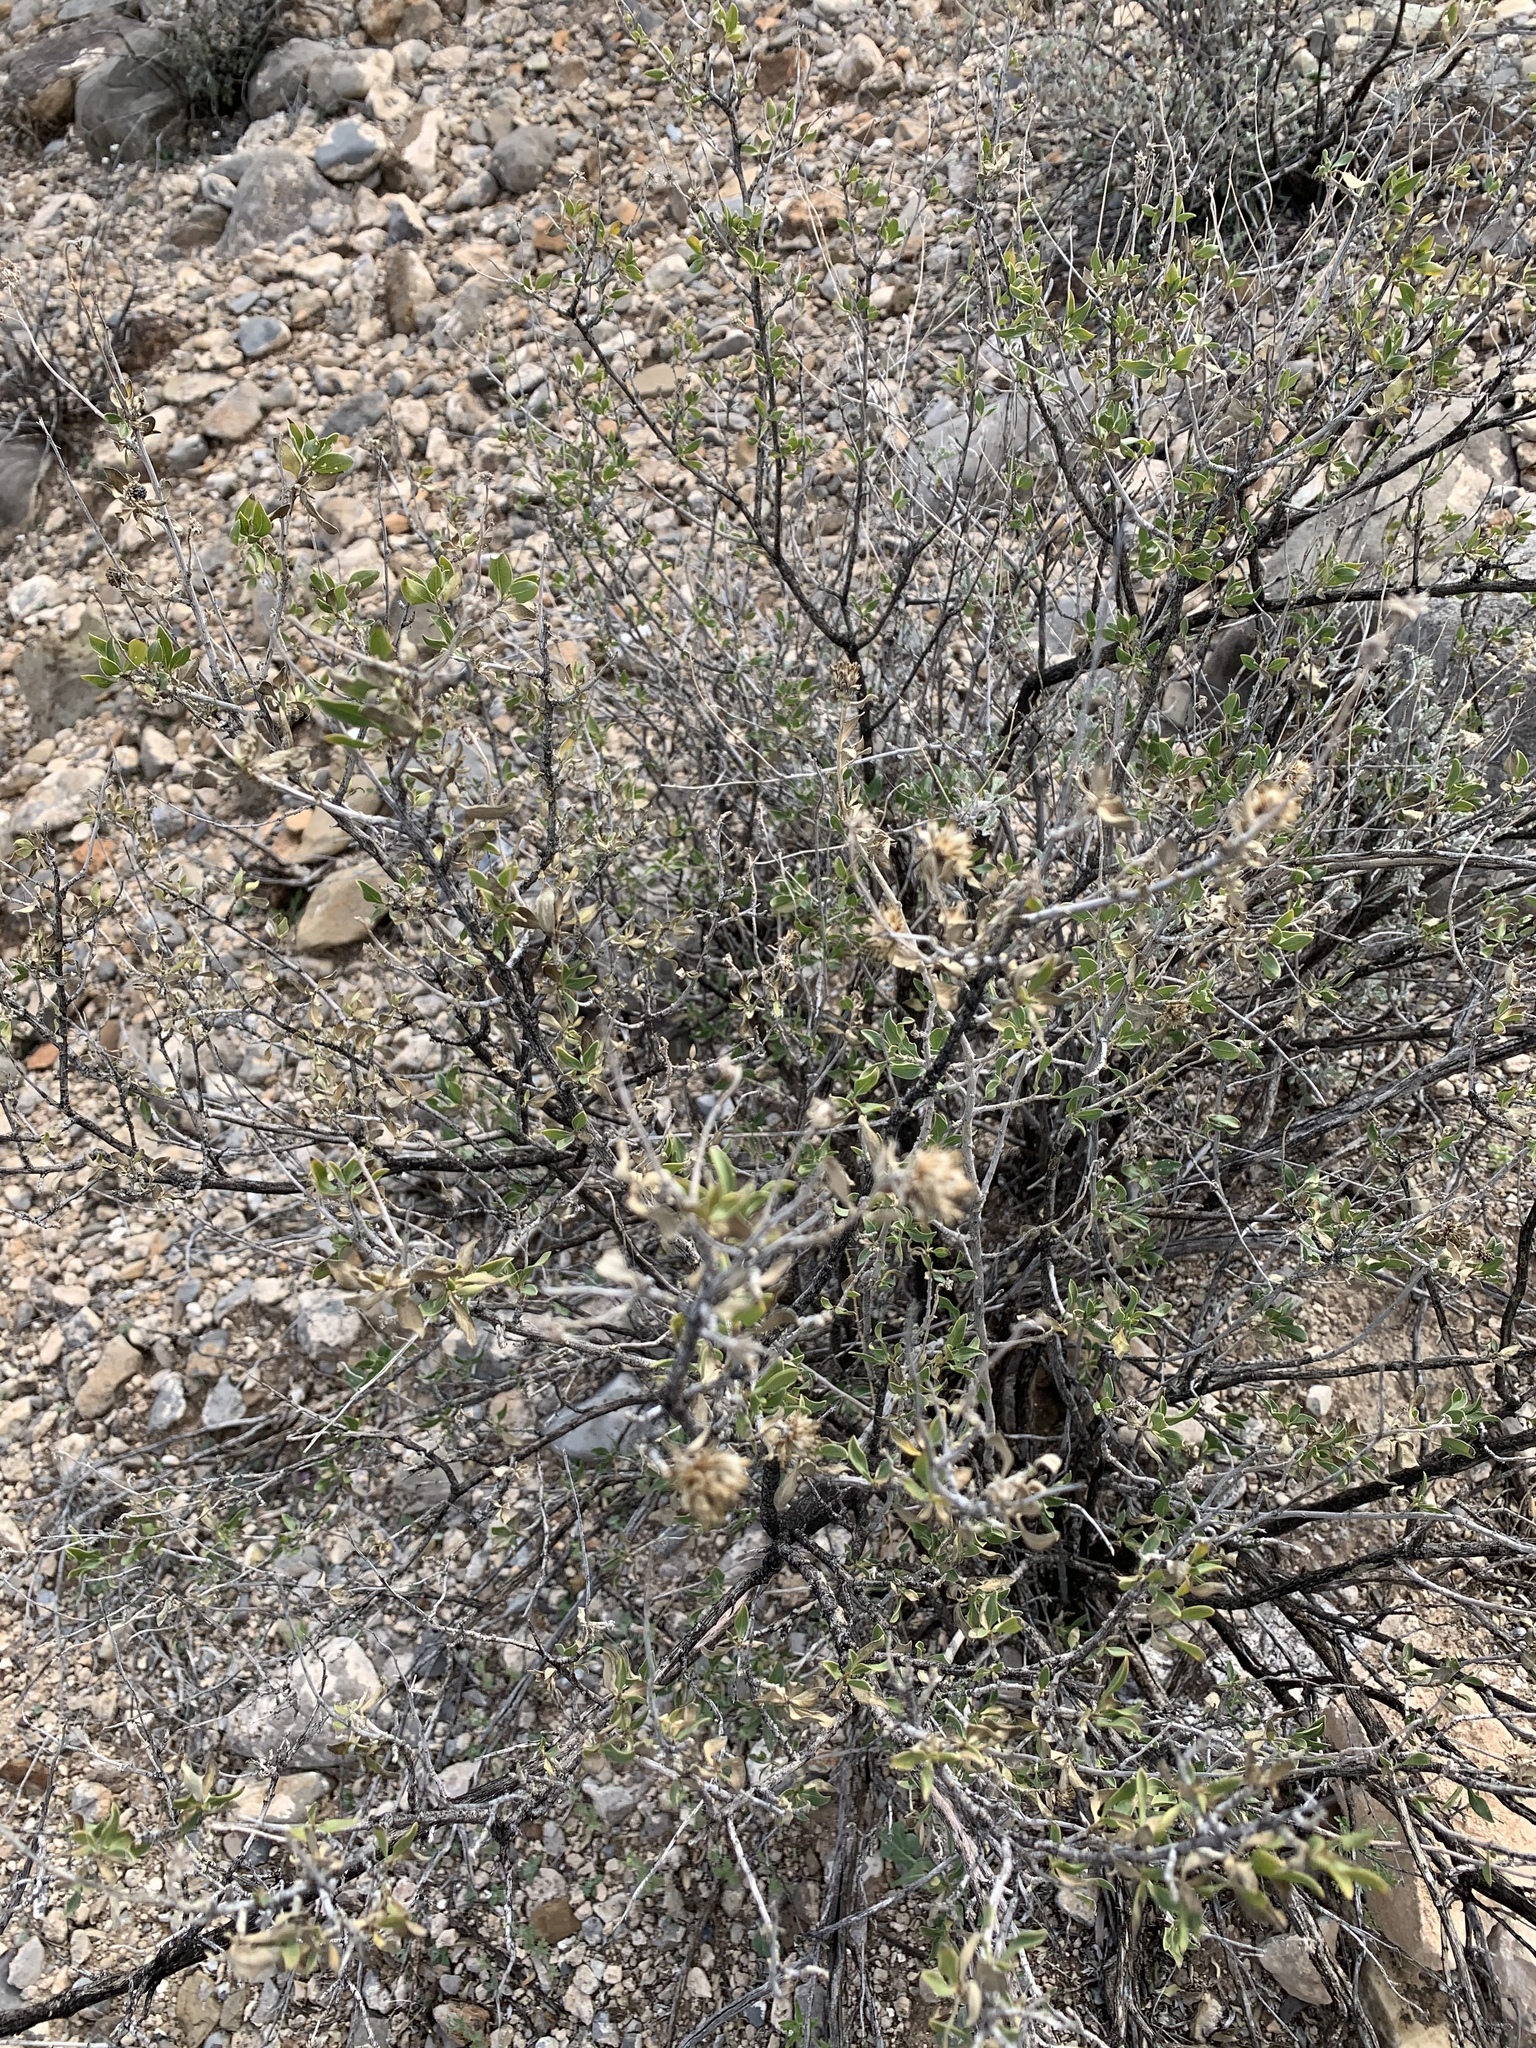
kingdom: Plantae
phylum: Tracheophyta
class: Magnoliopsida
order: Asterales
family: Asteraceae
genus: Flourensia
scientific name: Flourensia cernua
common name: Varnishbush
